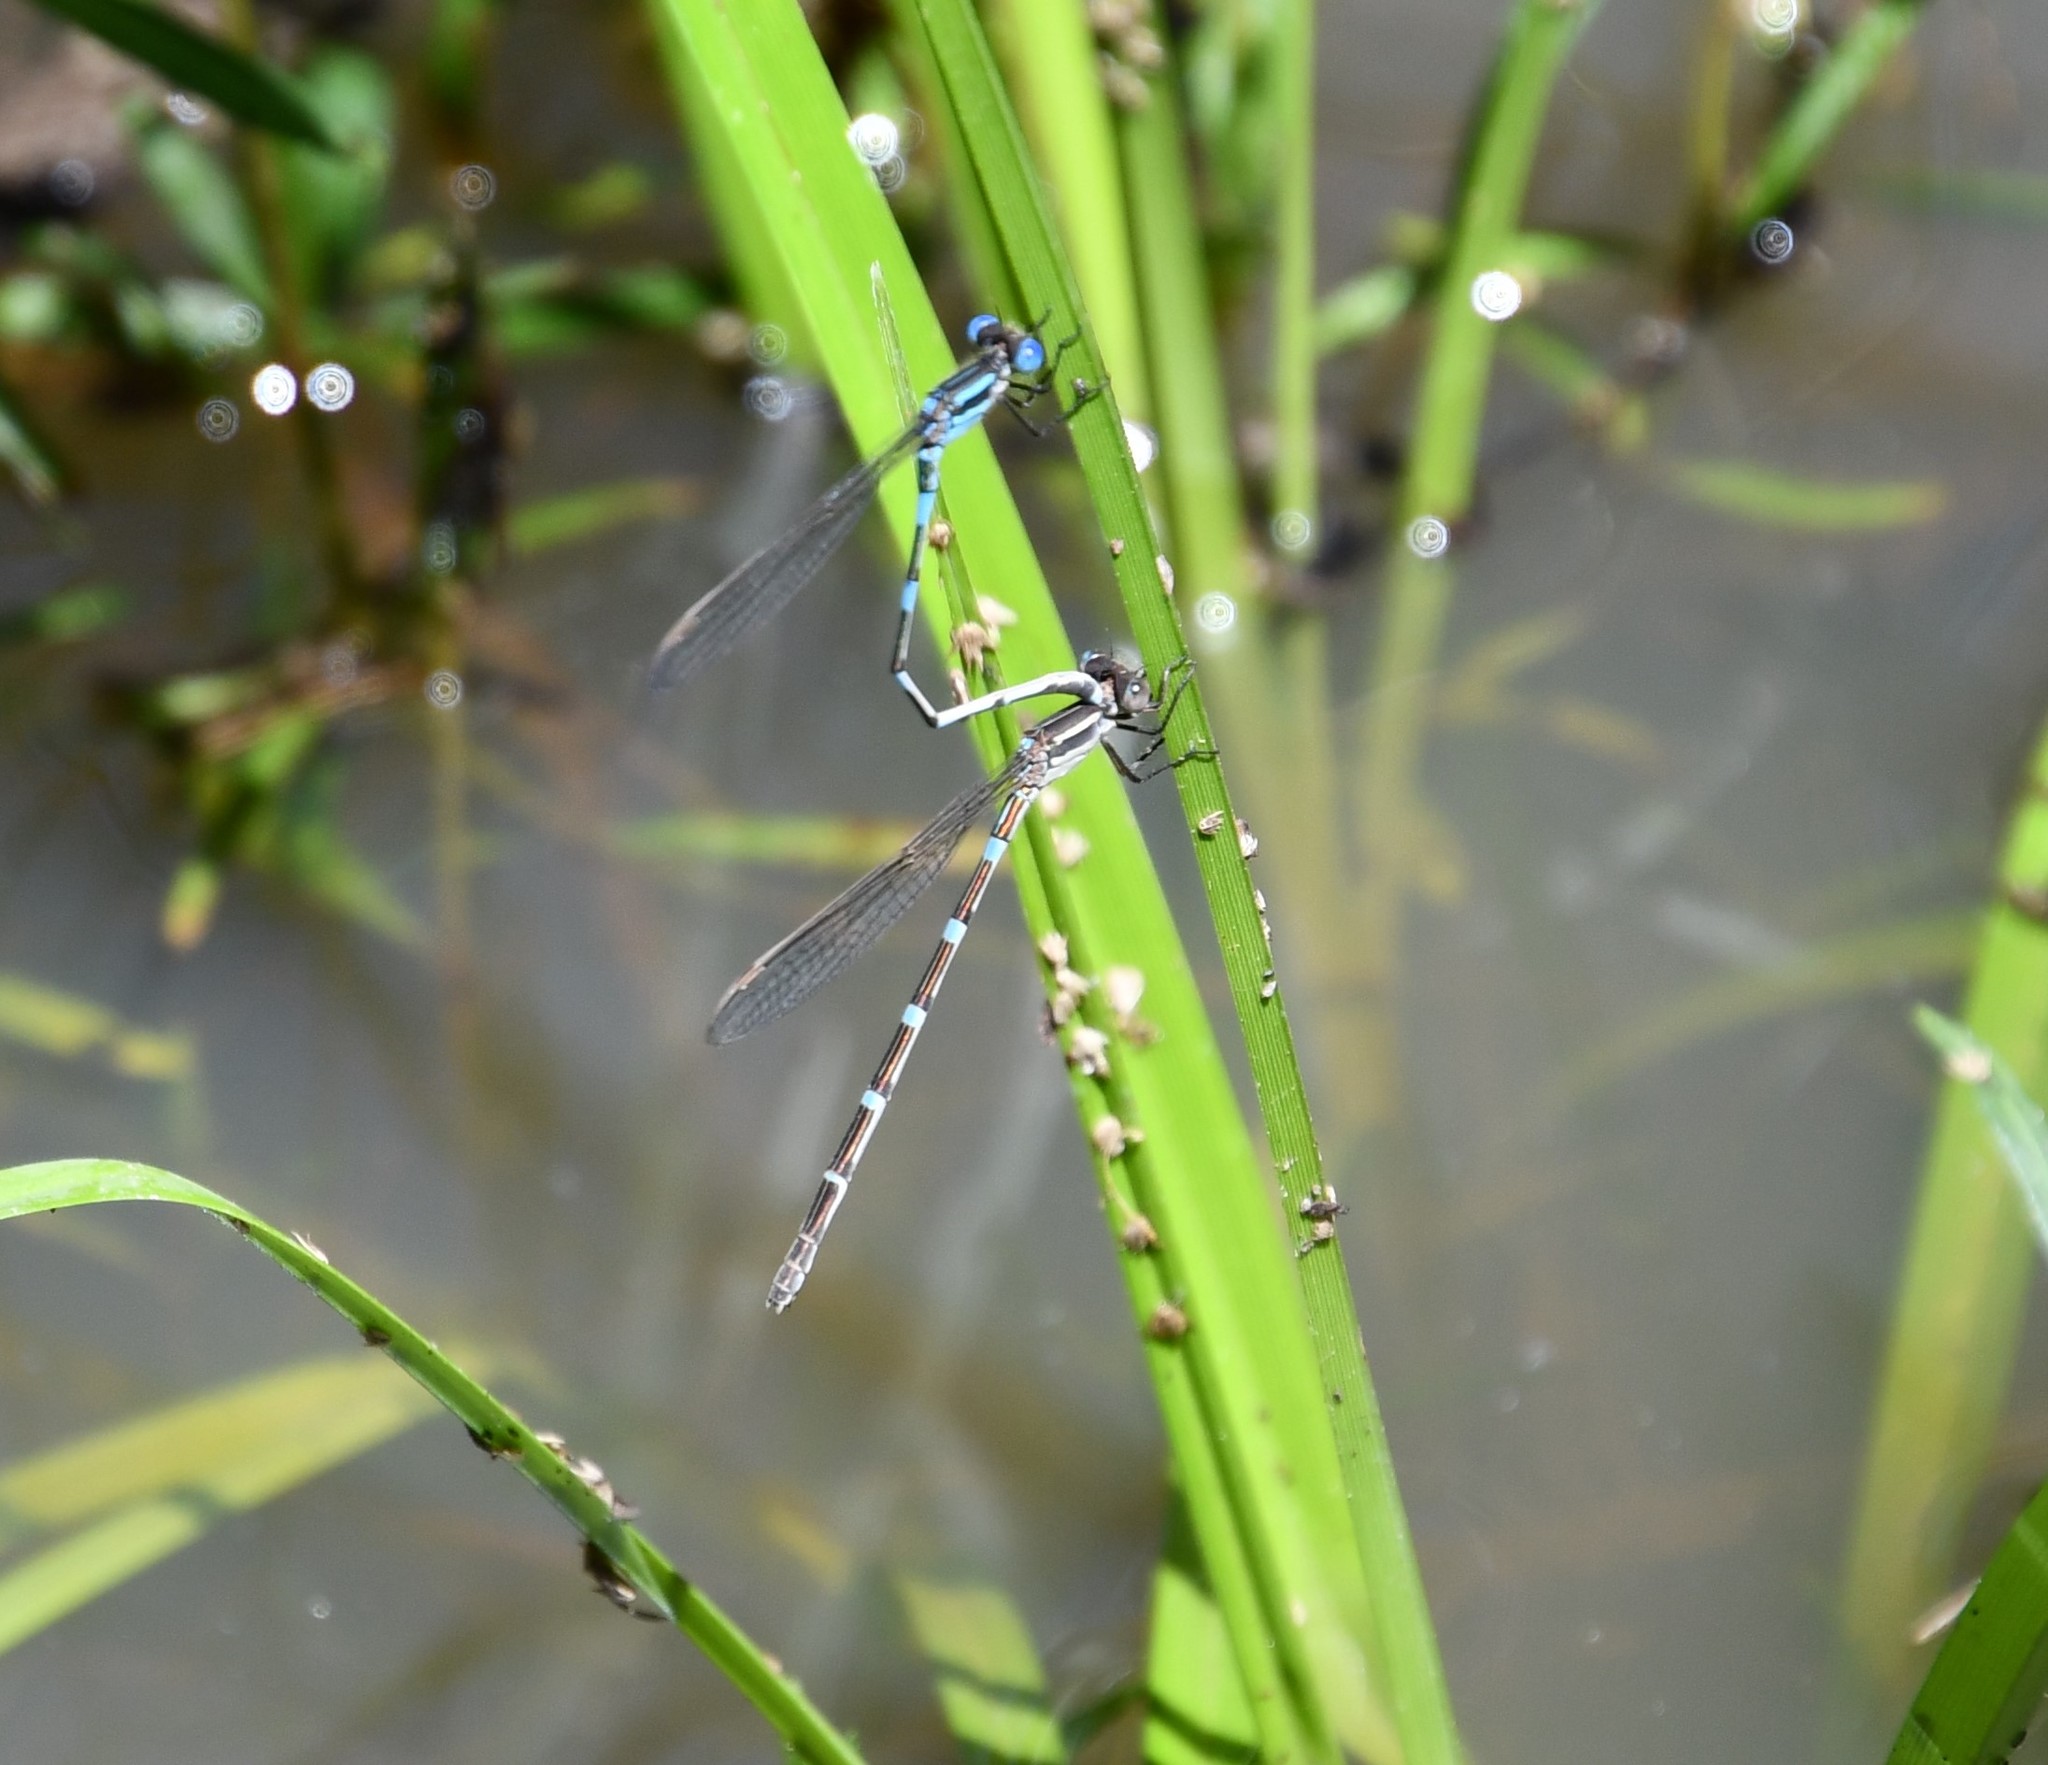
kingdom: Animalia
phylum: Arthropoda
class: Insecta
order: Odonata
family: Lestidae
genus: Austrolestes
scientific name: Austrolestes leda
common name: Wandering ringtail
